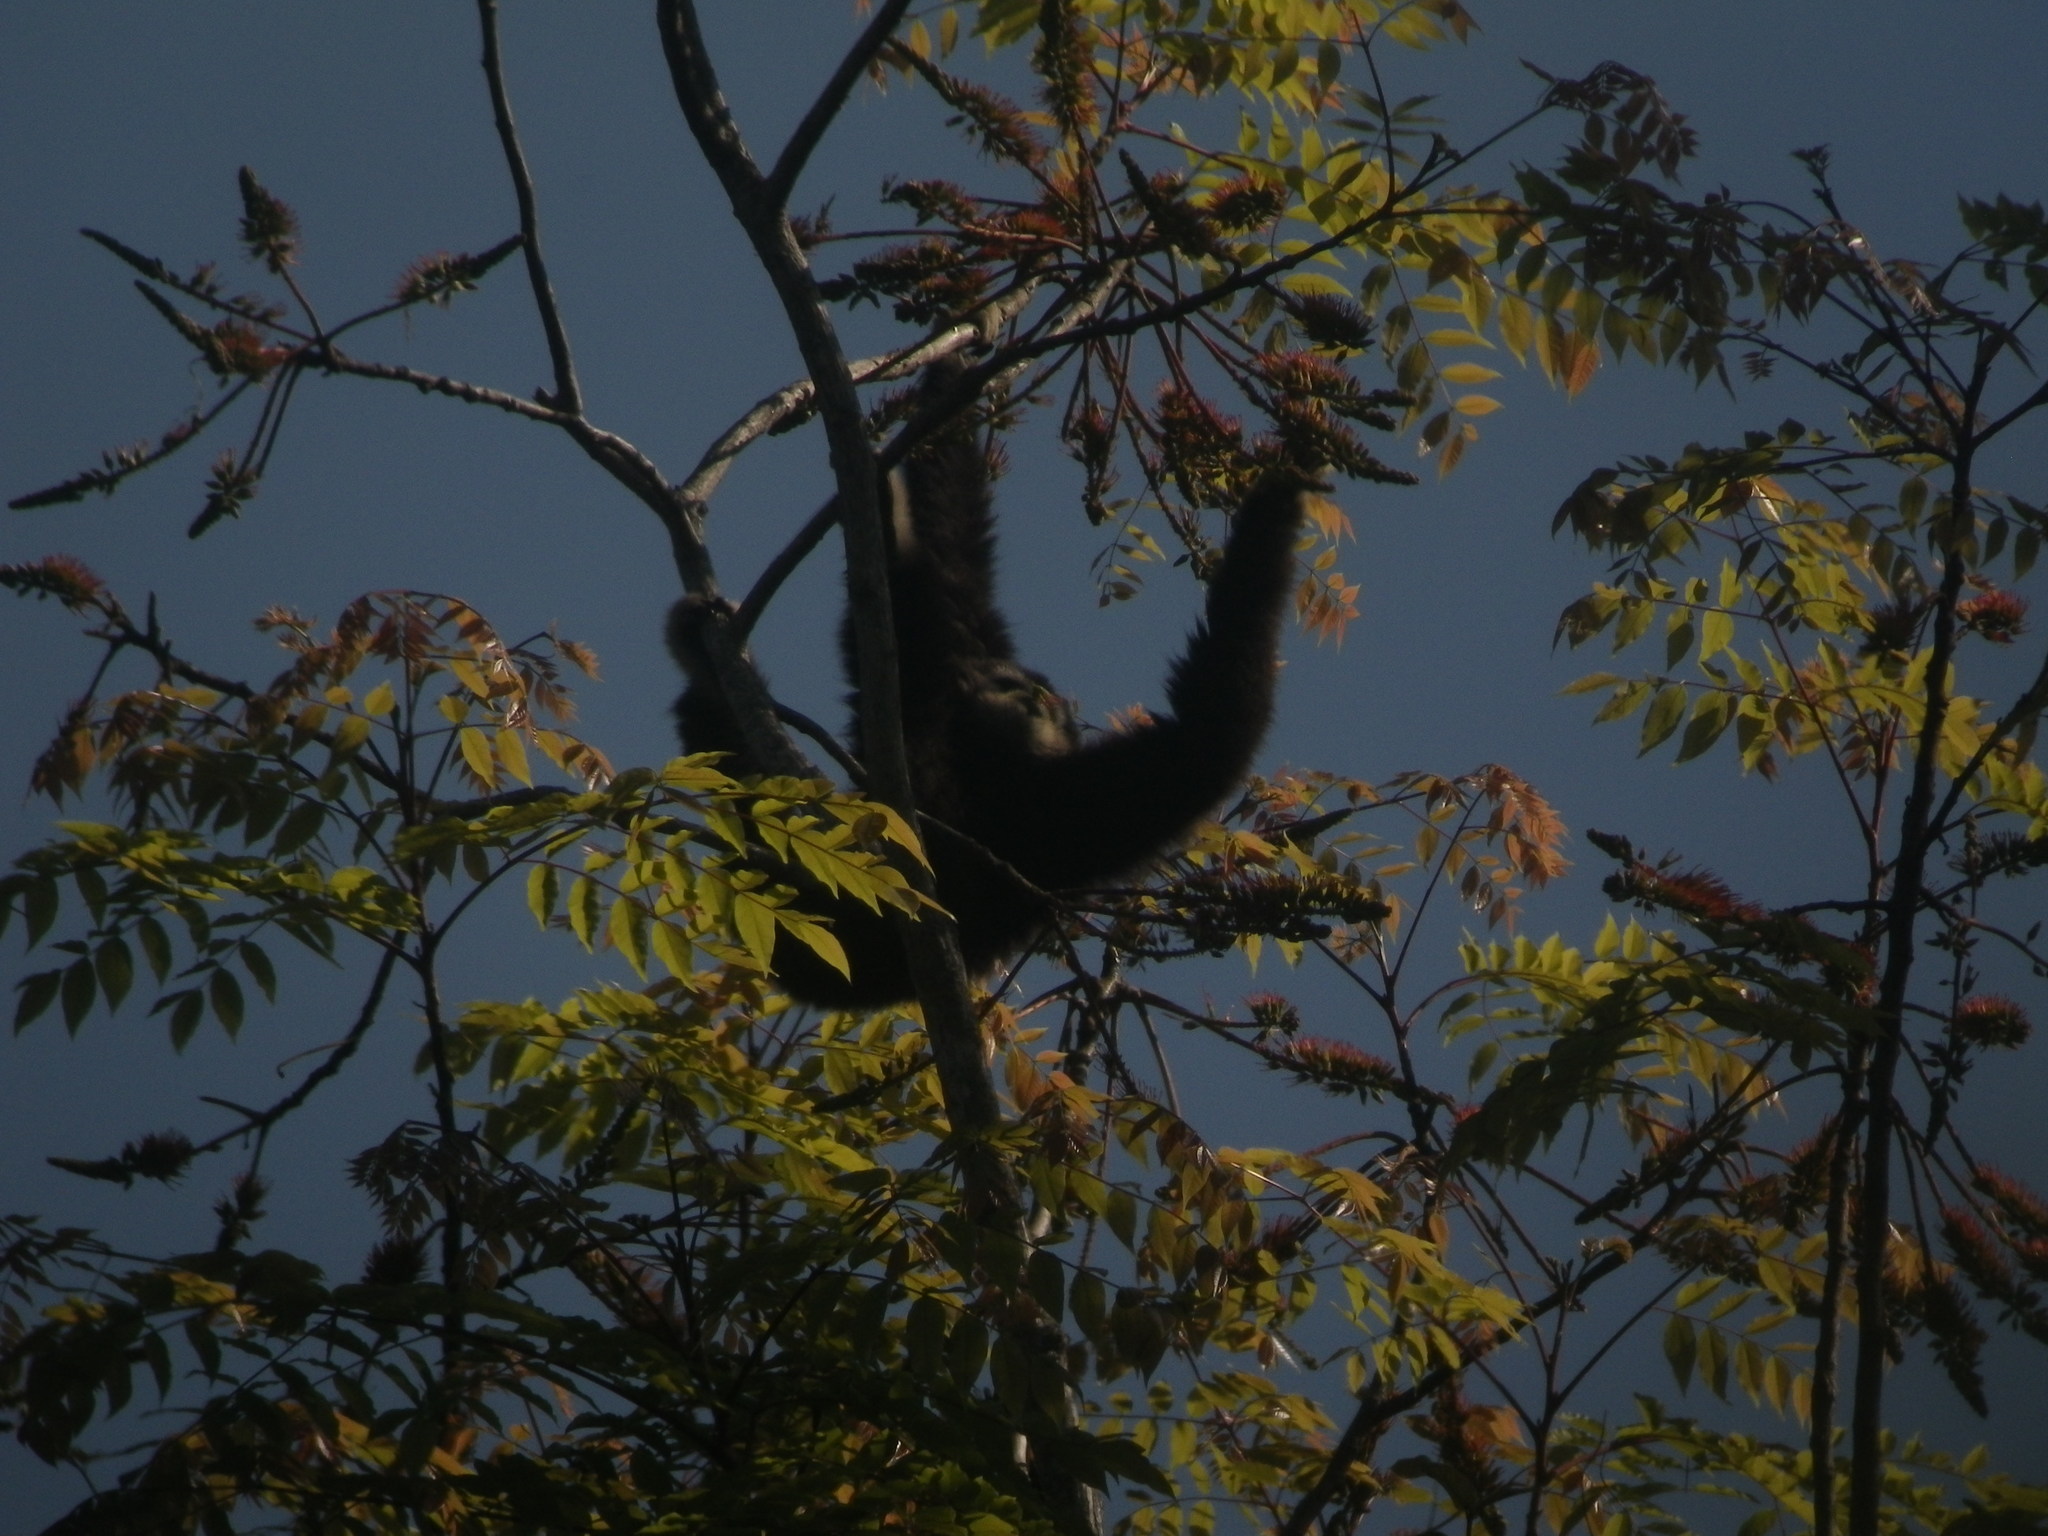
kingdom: Animalia
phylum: Chordata
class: Mammalia
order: Primates
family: Hylobatidae
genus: Hylobates
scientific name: Hylobates lar
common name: Lar gibbon
